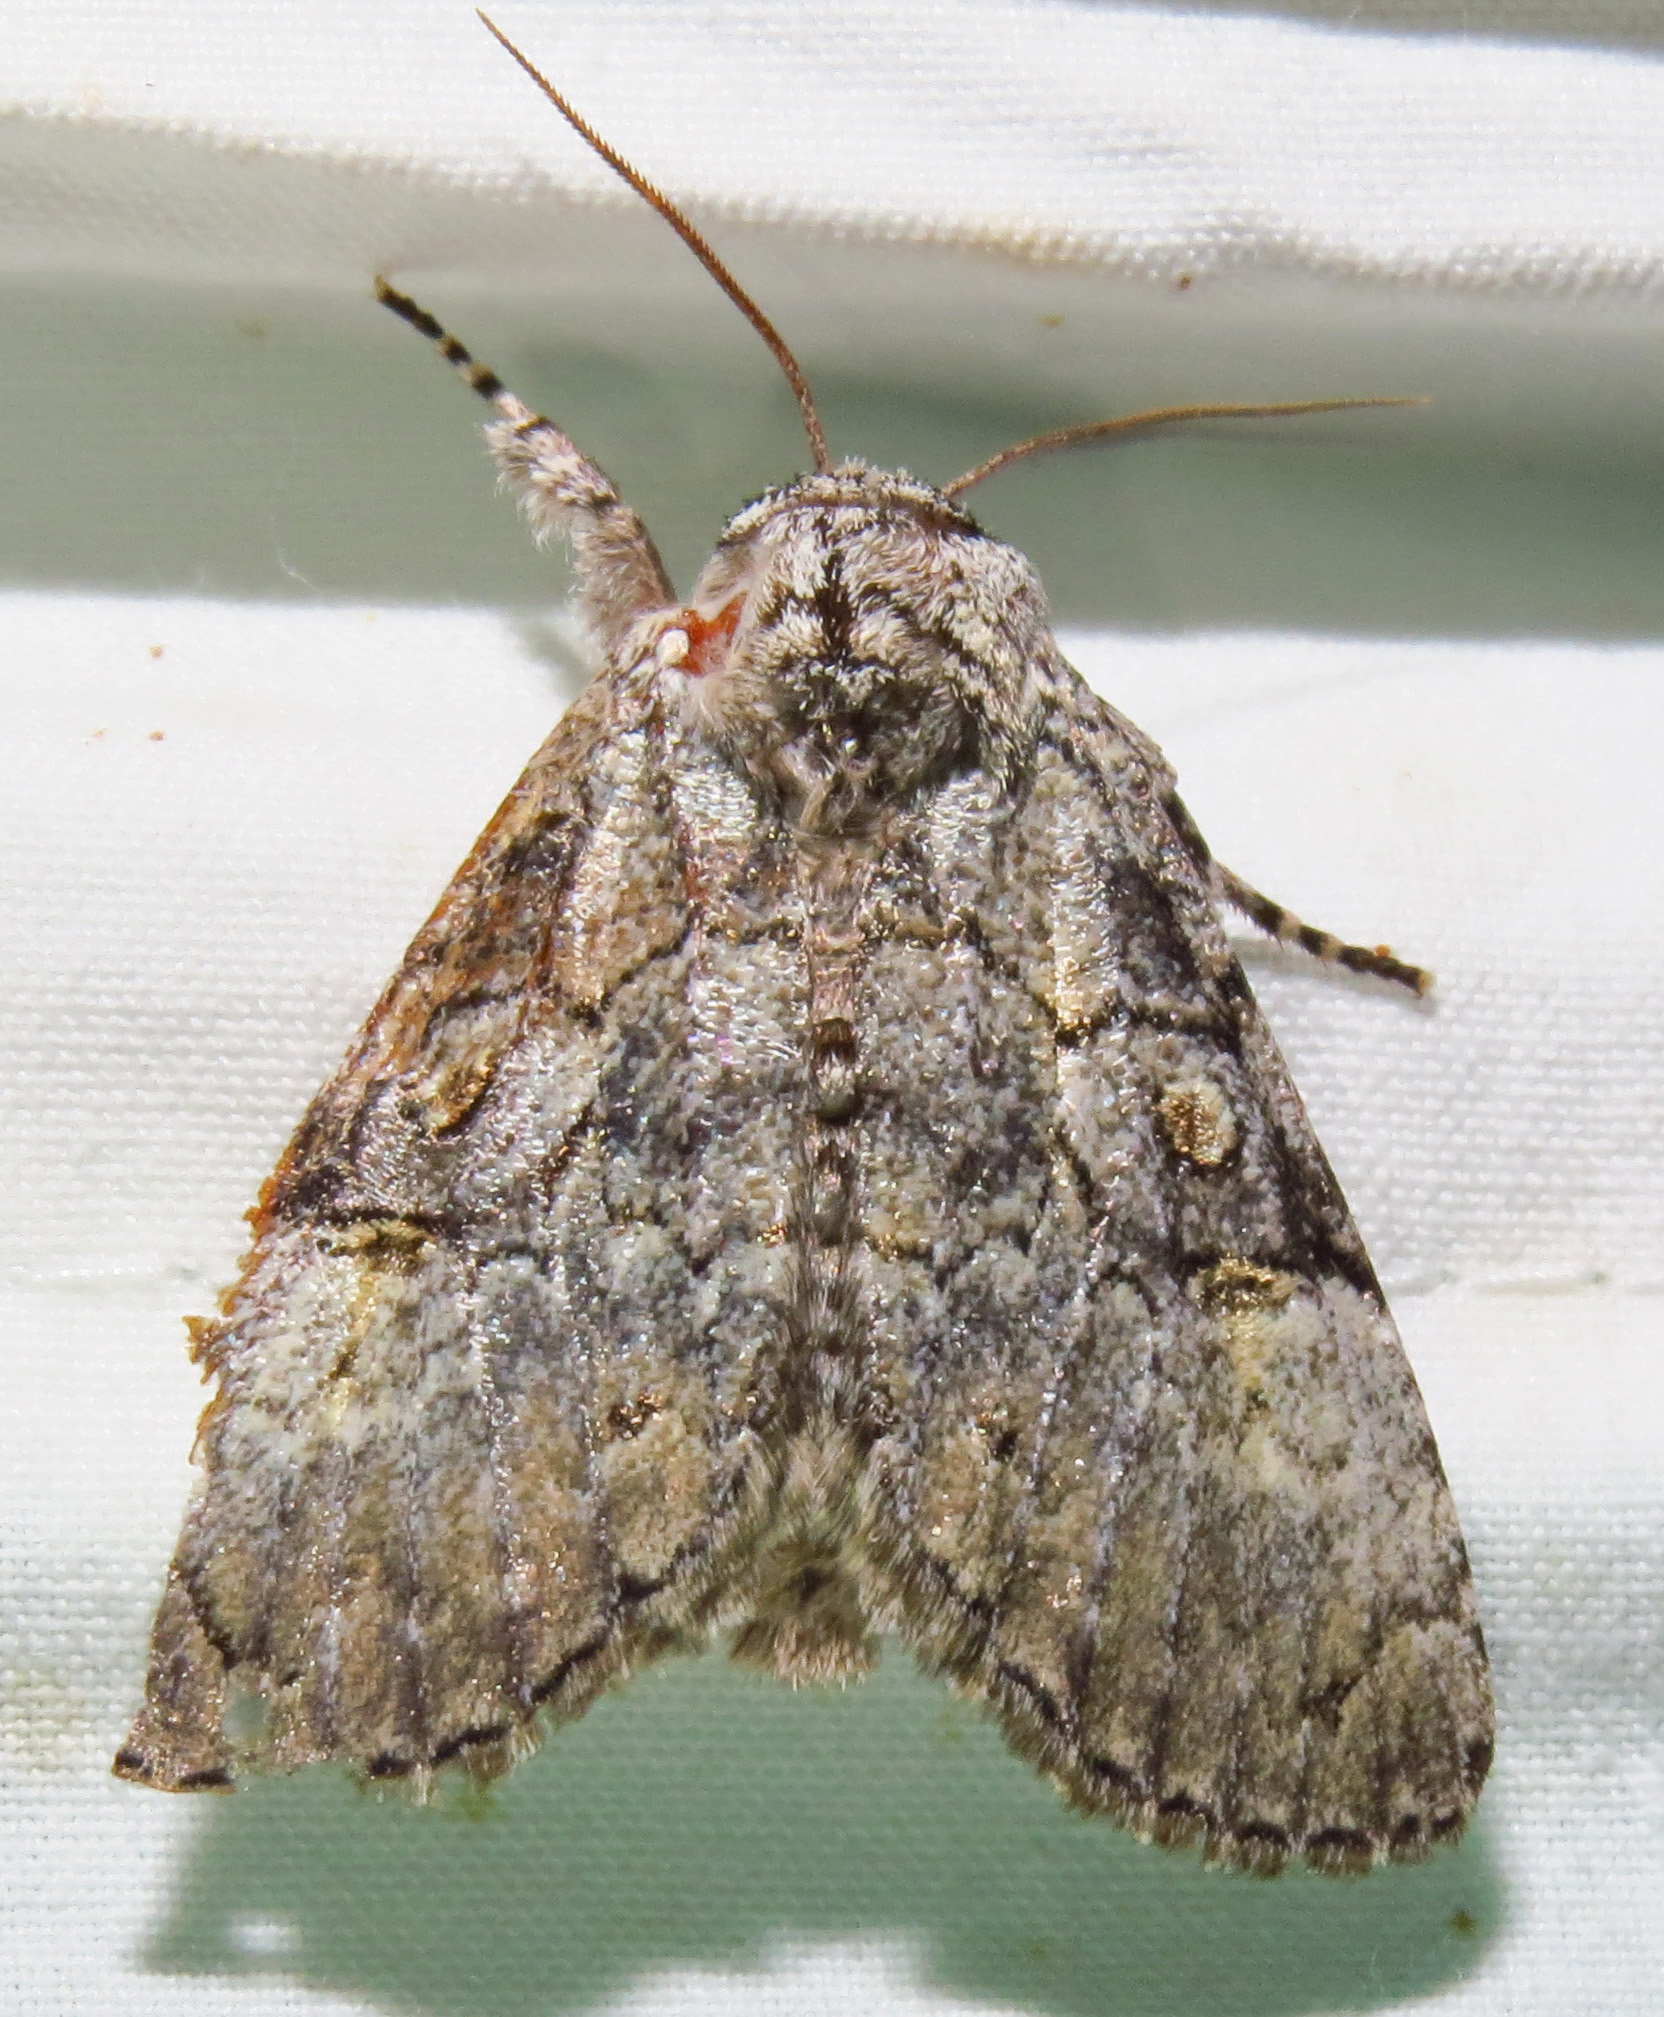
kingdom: Animalia
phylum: Arthropoda
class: Insecta
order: Lepidoptera
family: Noctuidae
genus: Charadra
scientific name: Charadra deridens
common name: Marbled tuffet
